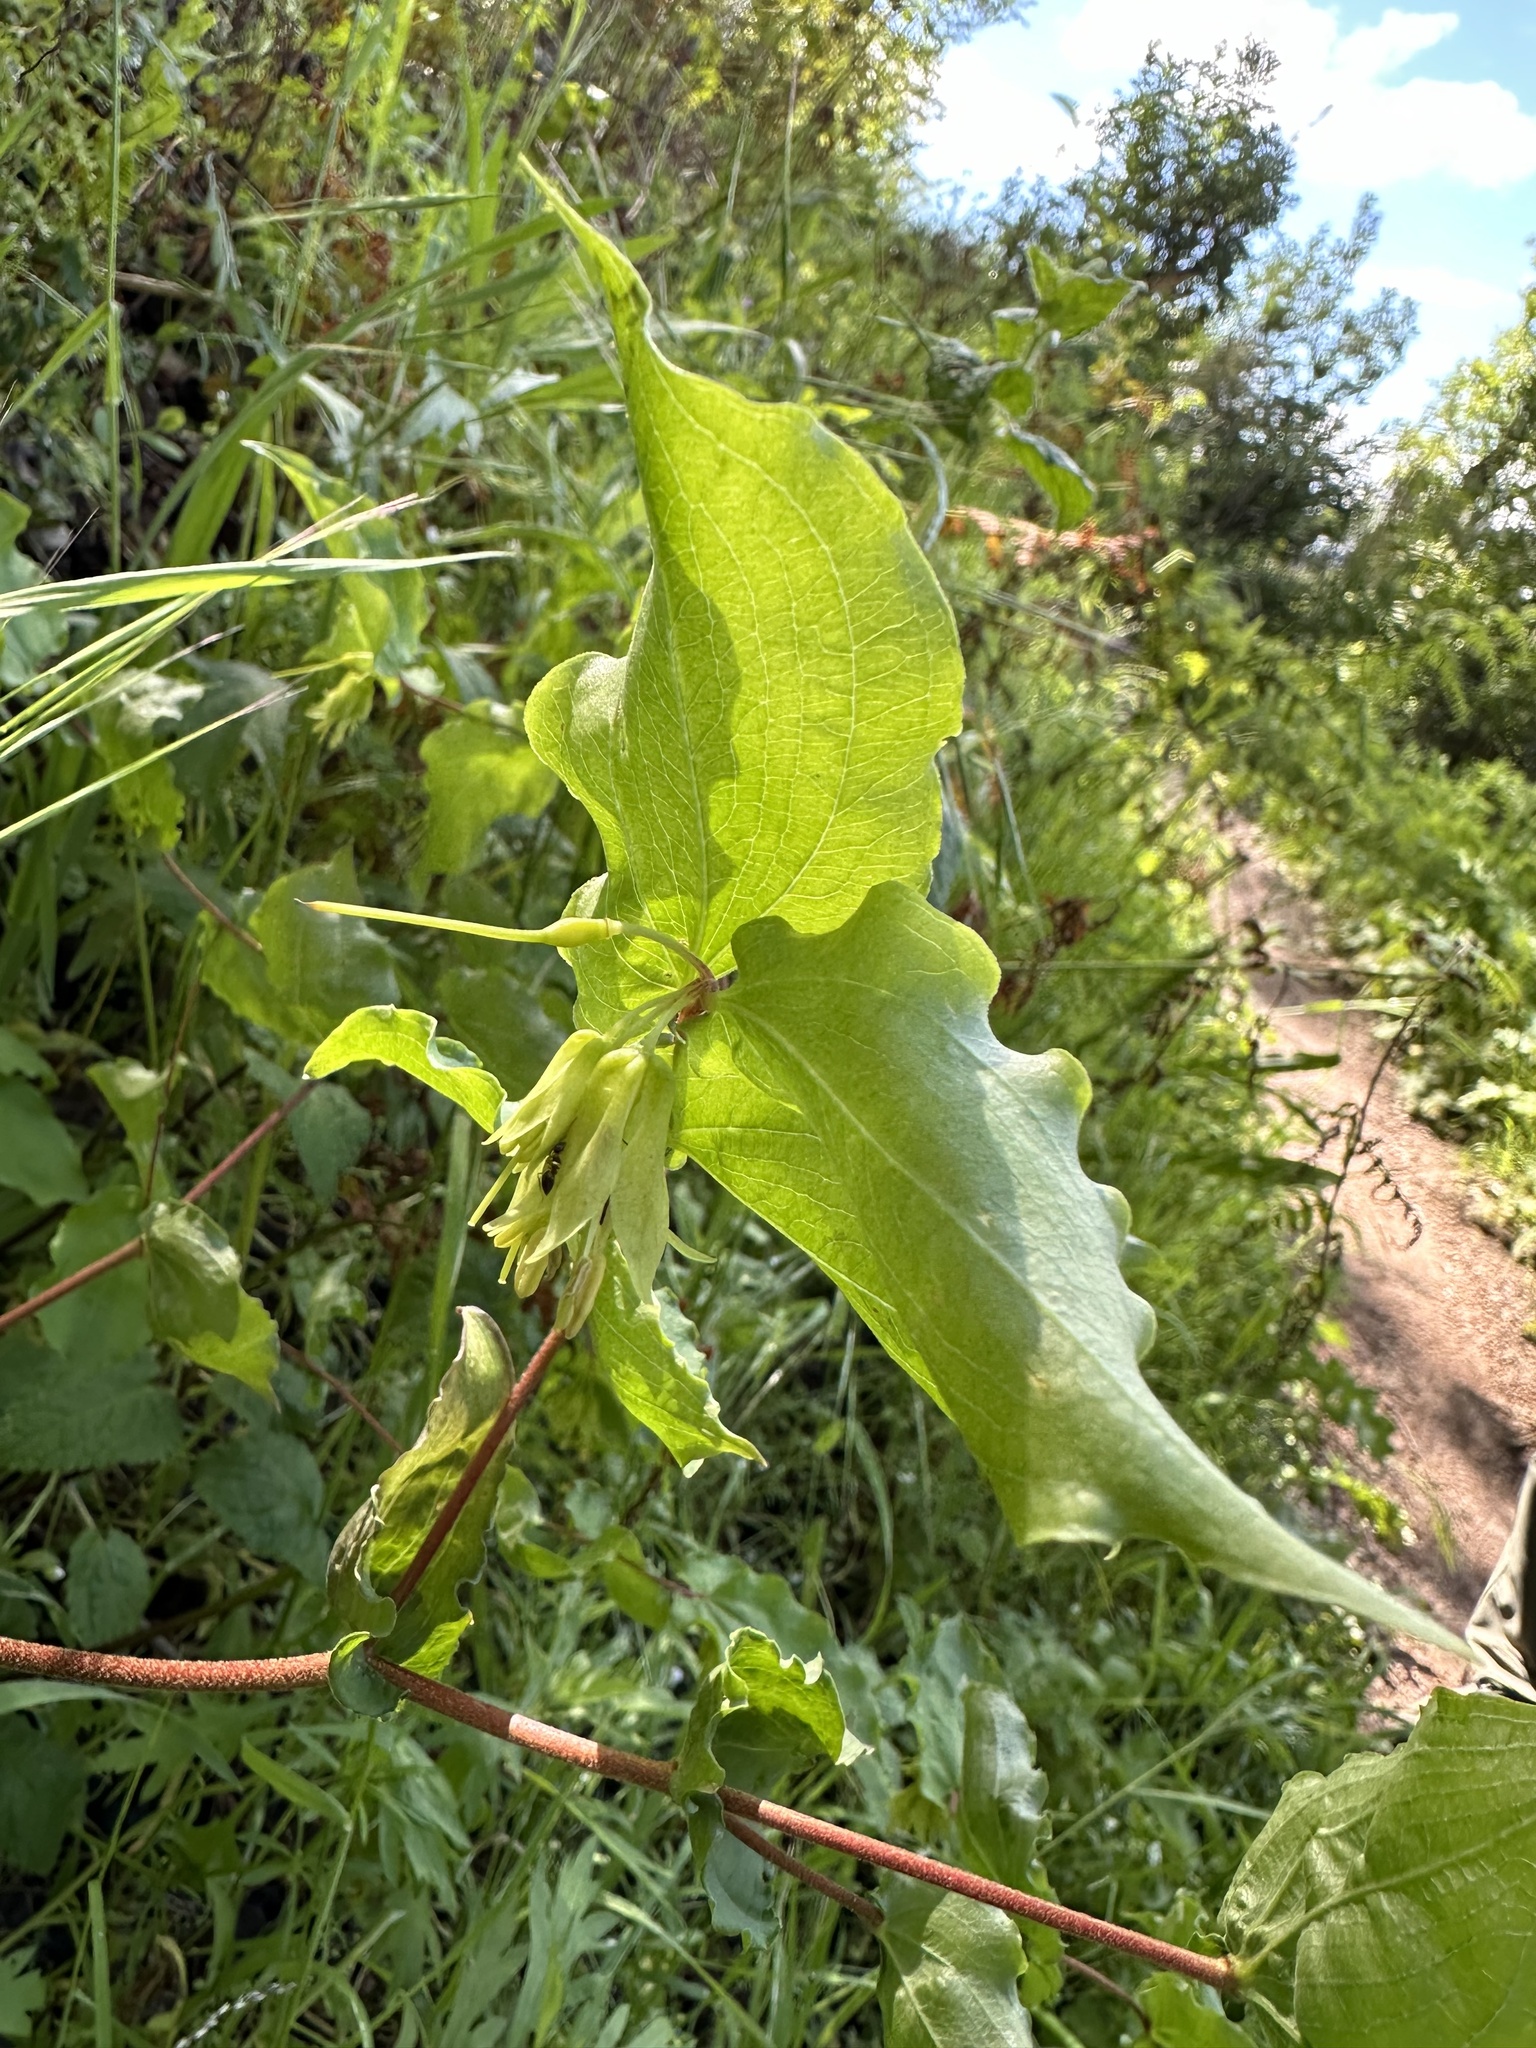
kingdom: Plantae
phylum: Tracheophyta
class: Liliopsida
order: Liliales
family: Liliaceae
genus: Prosartes
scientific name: Prosartes hookeri
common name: Fairy-bells
